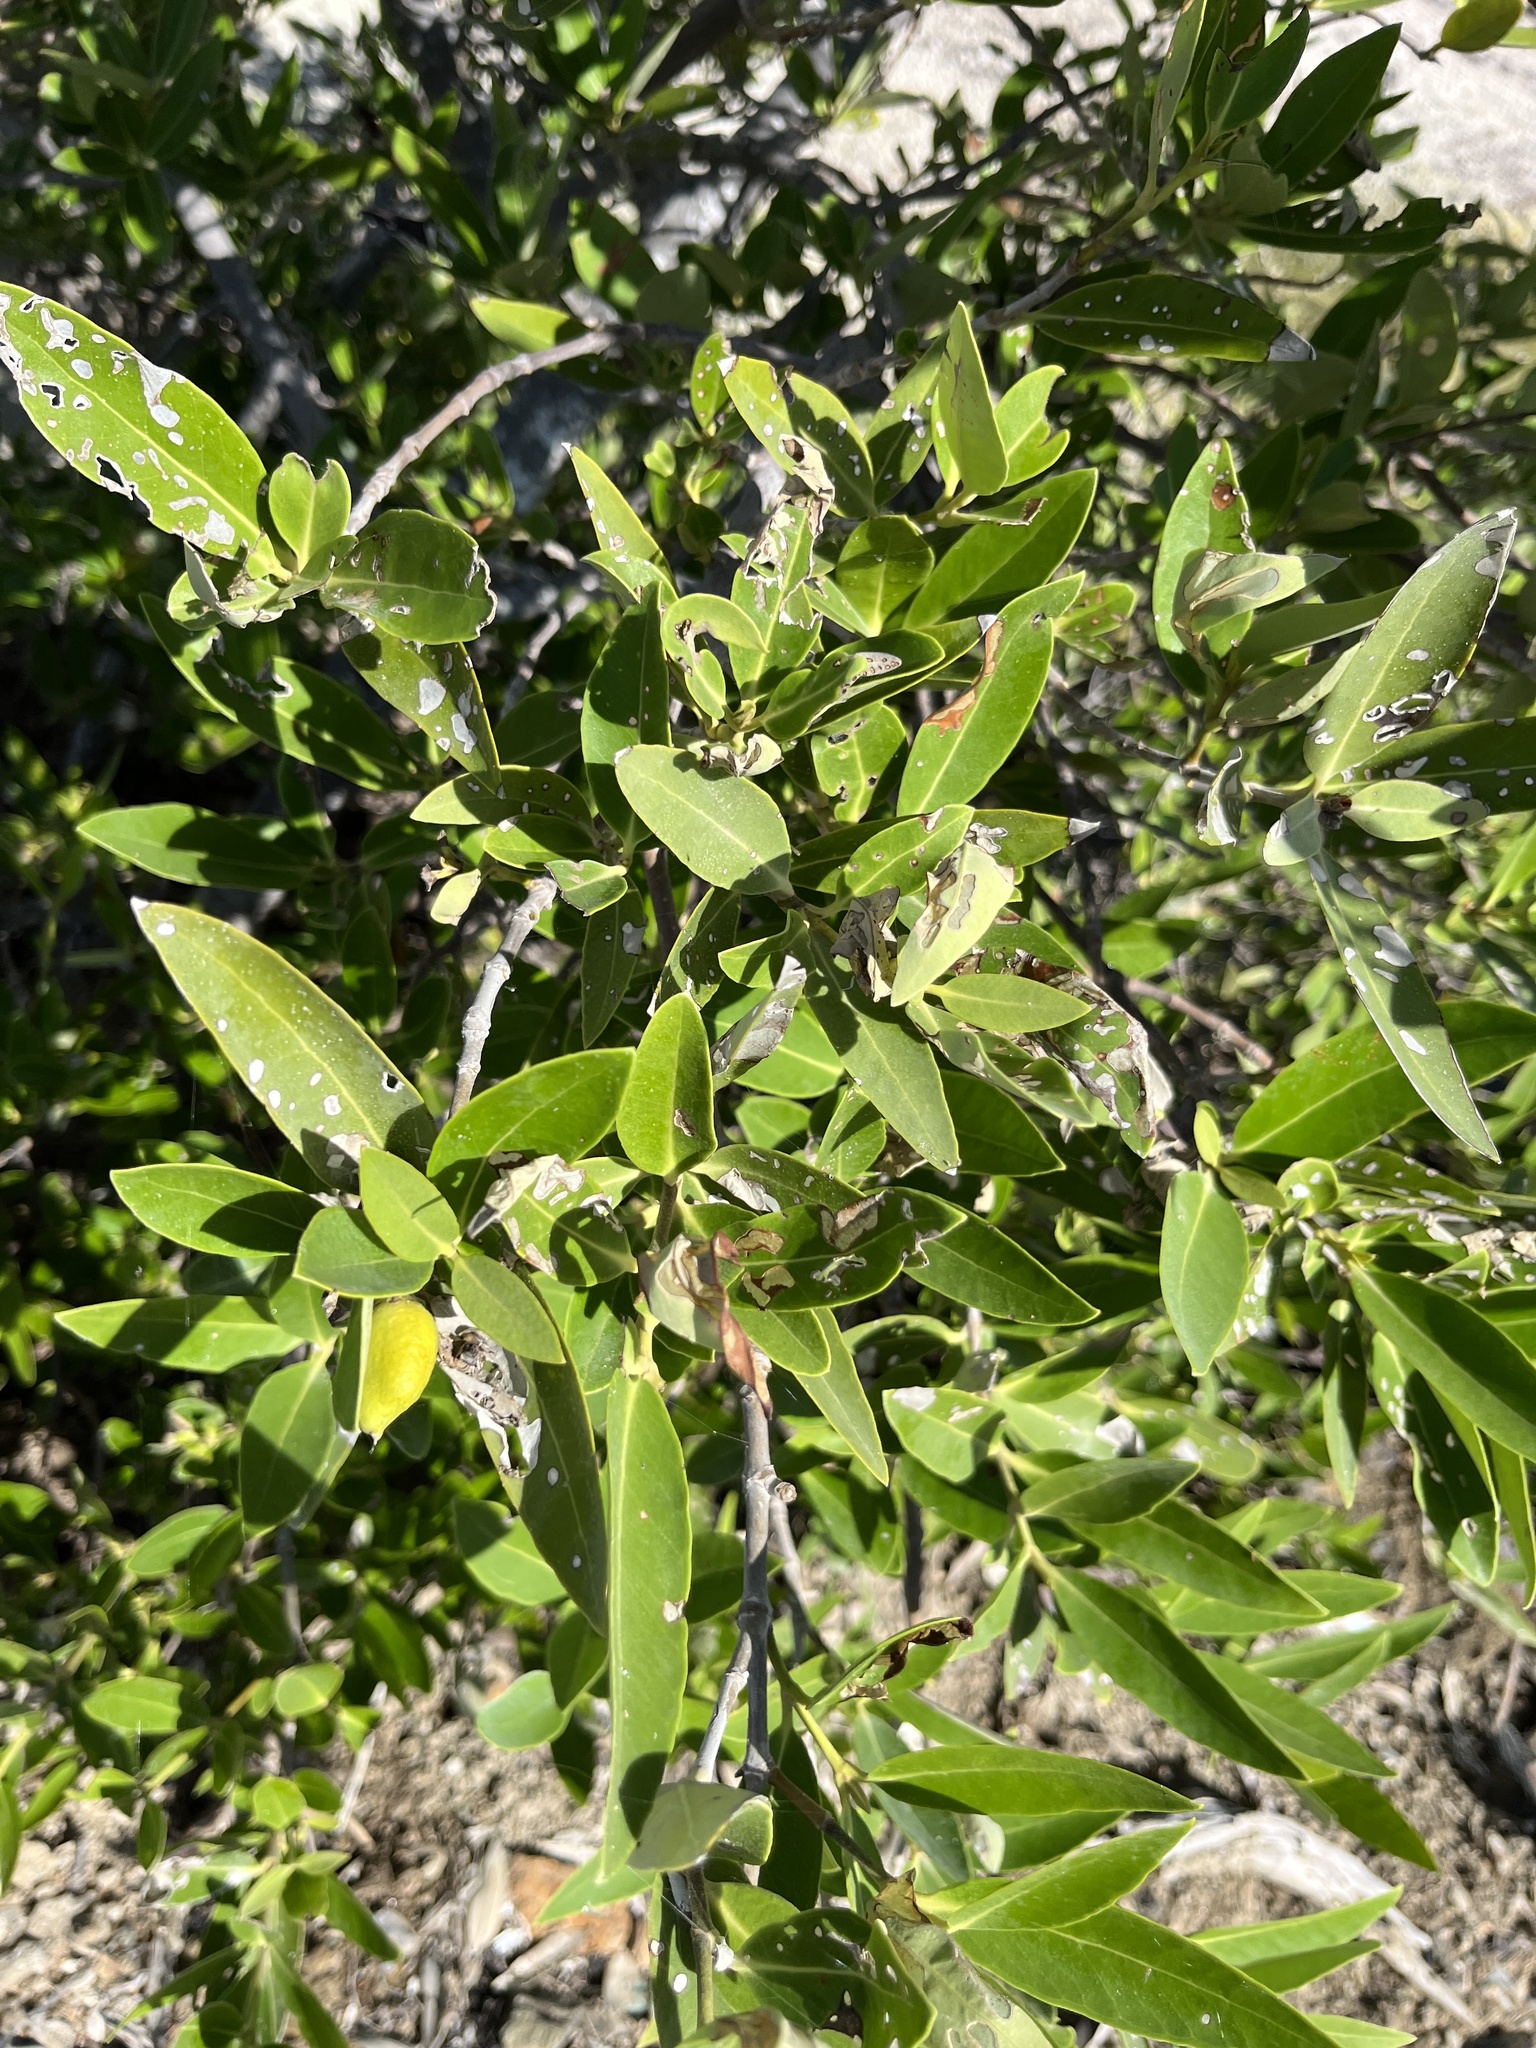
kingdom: Plantae
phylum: Tracheophyta
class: Magnoliopsida
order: Lamiales
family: Acanthaceae
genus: Avicennia
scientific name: Avicennia germinans
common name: Black mangrove
